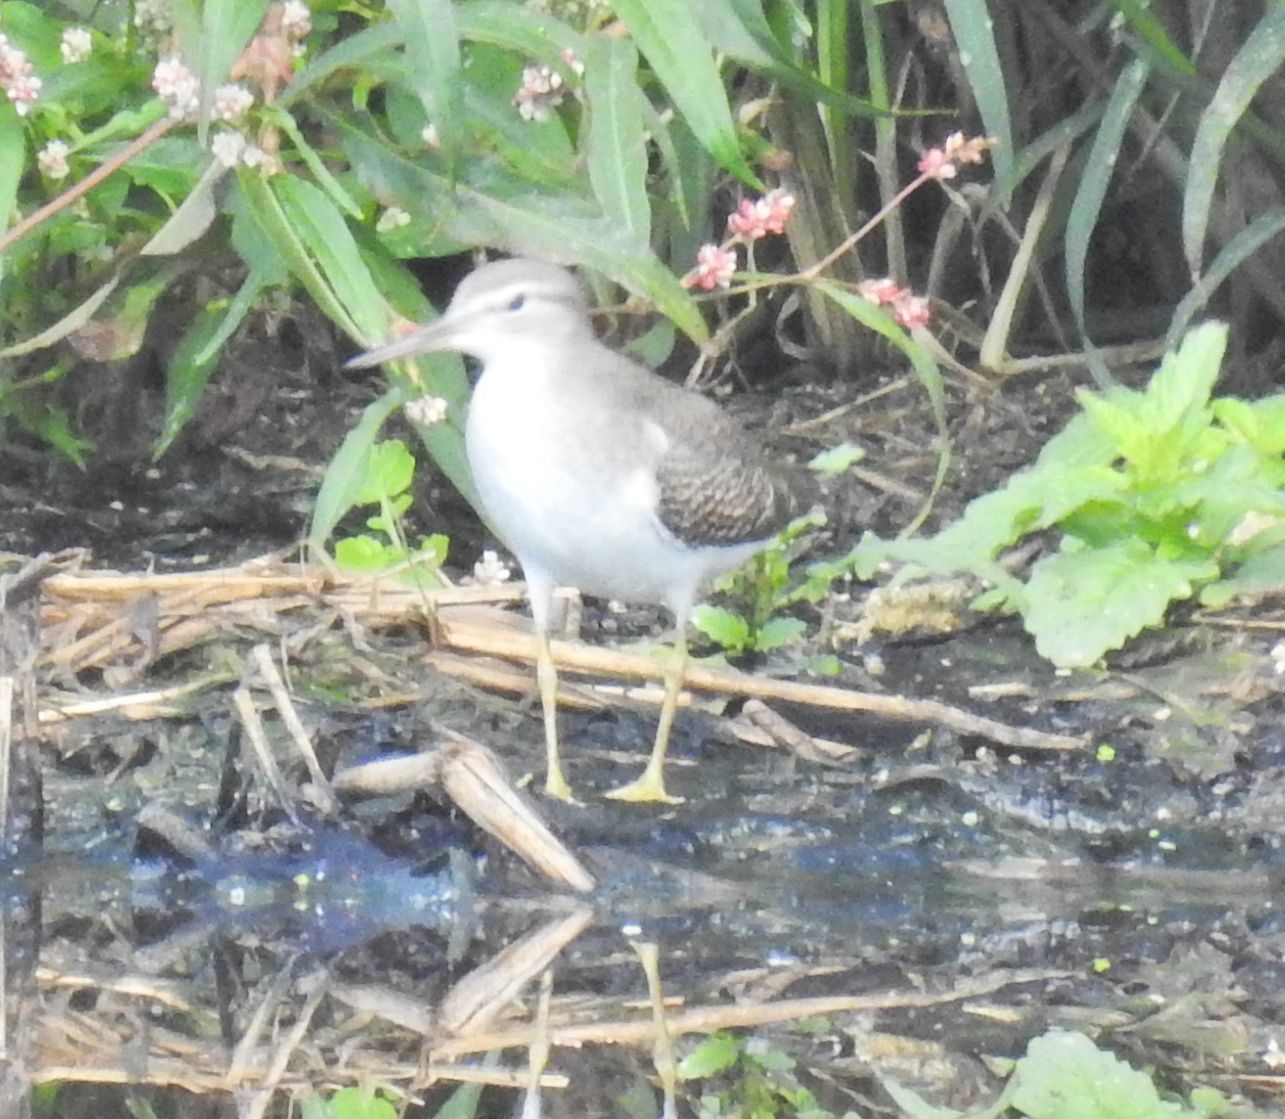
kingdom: Animalia
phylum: Chordata
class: Aves
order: Charadriiformes
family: Scolopacidae
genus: Actitis
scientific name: Actitis macularius
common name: Spotted sandpiper
